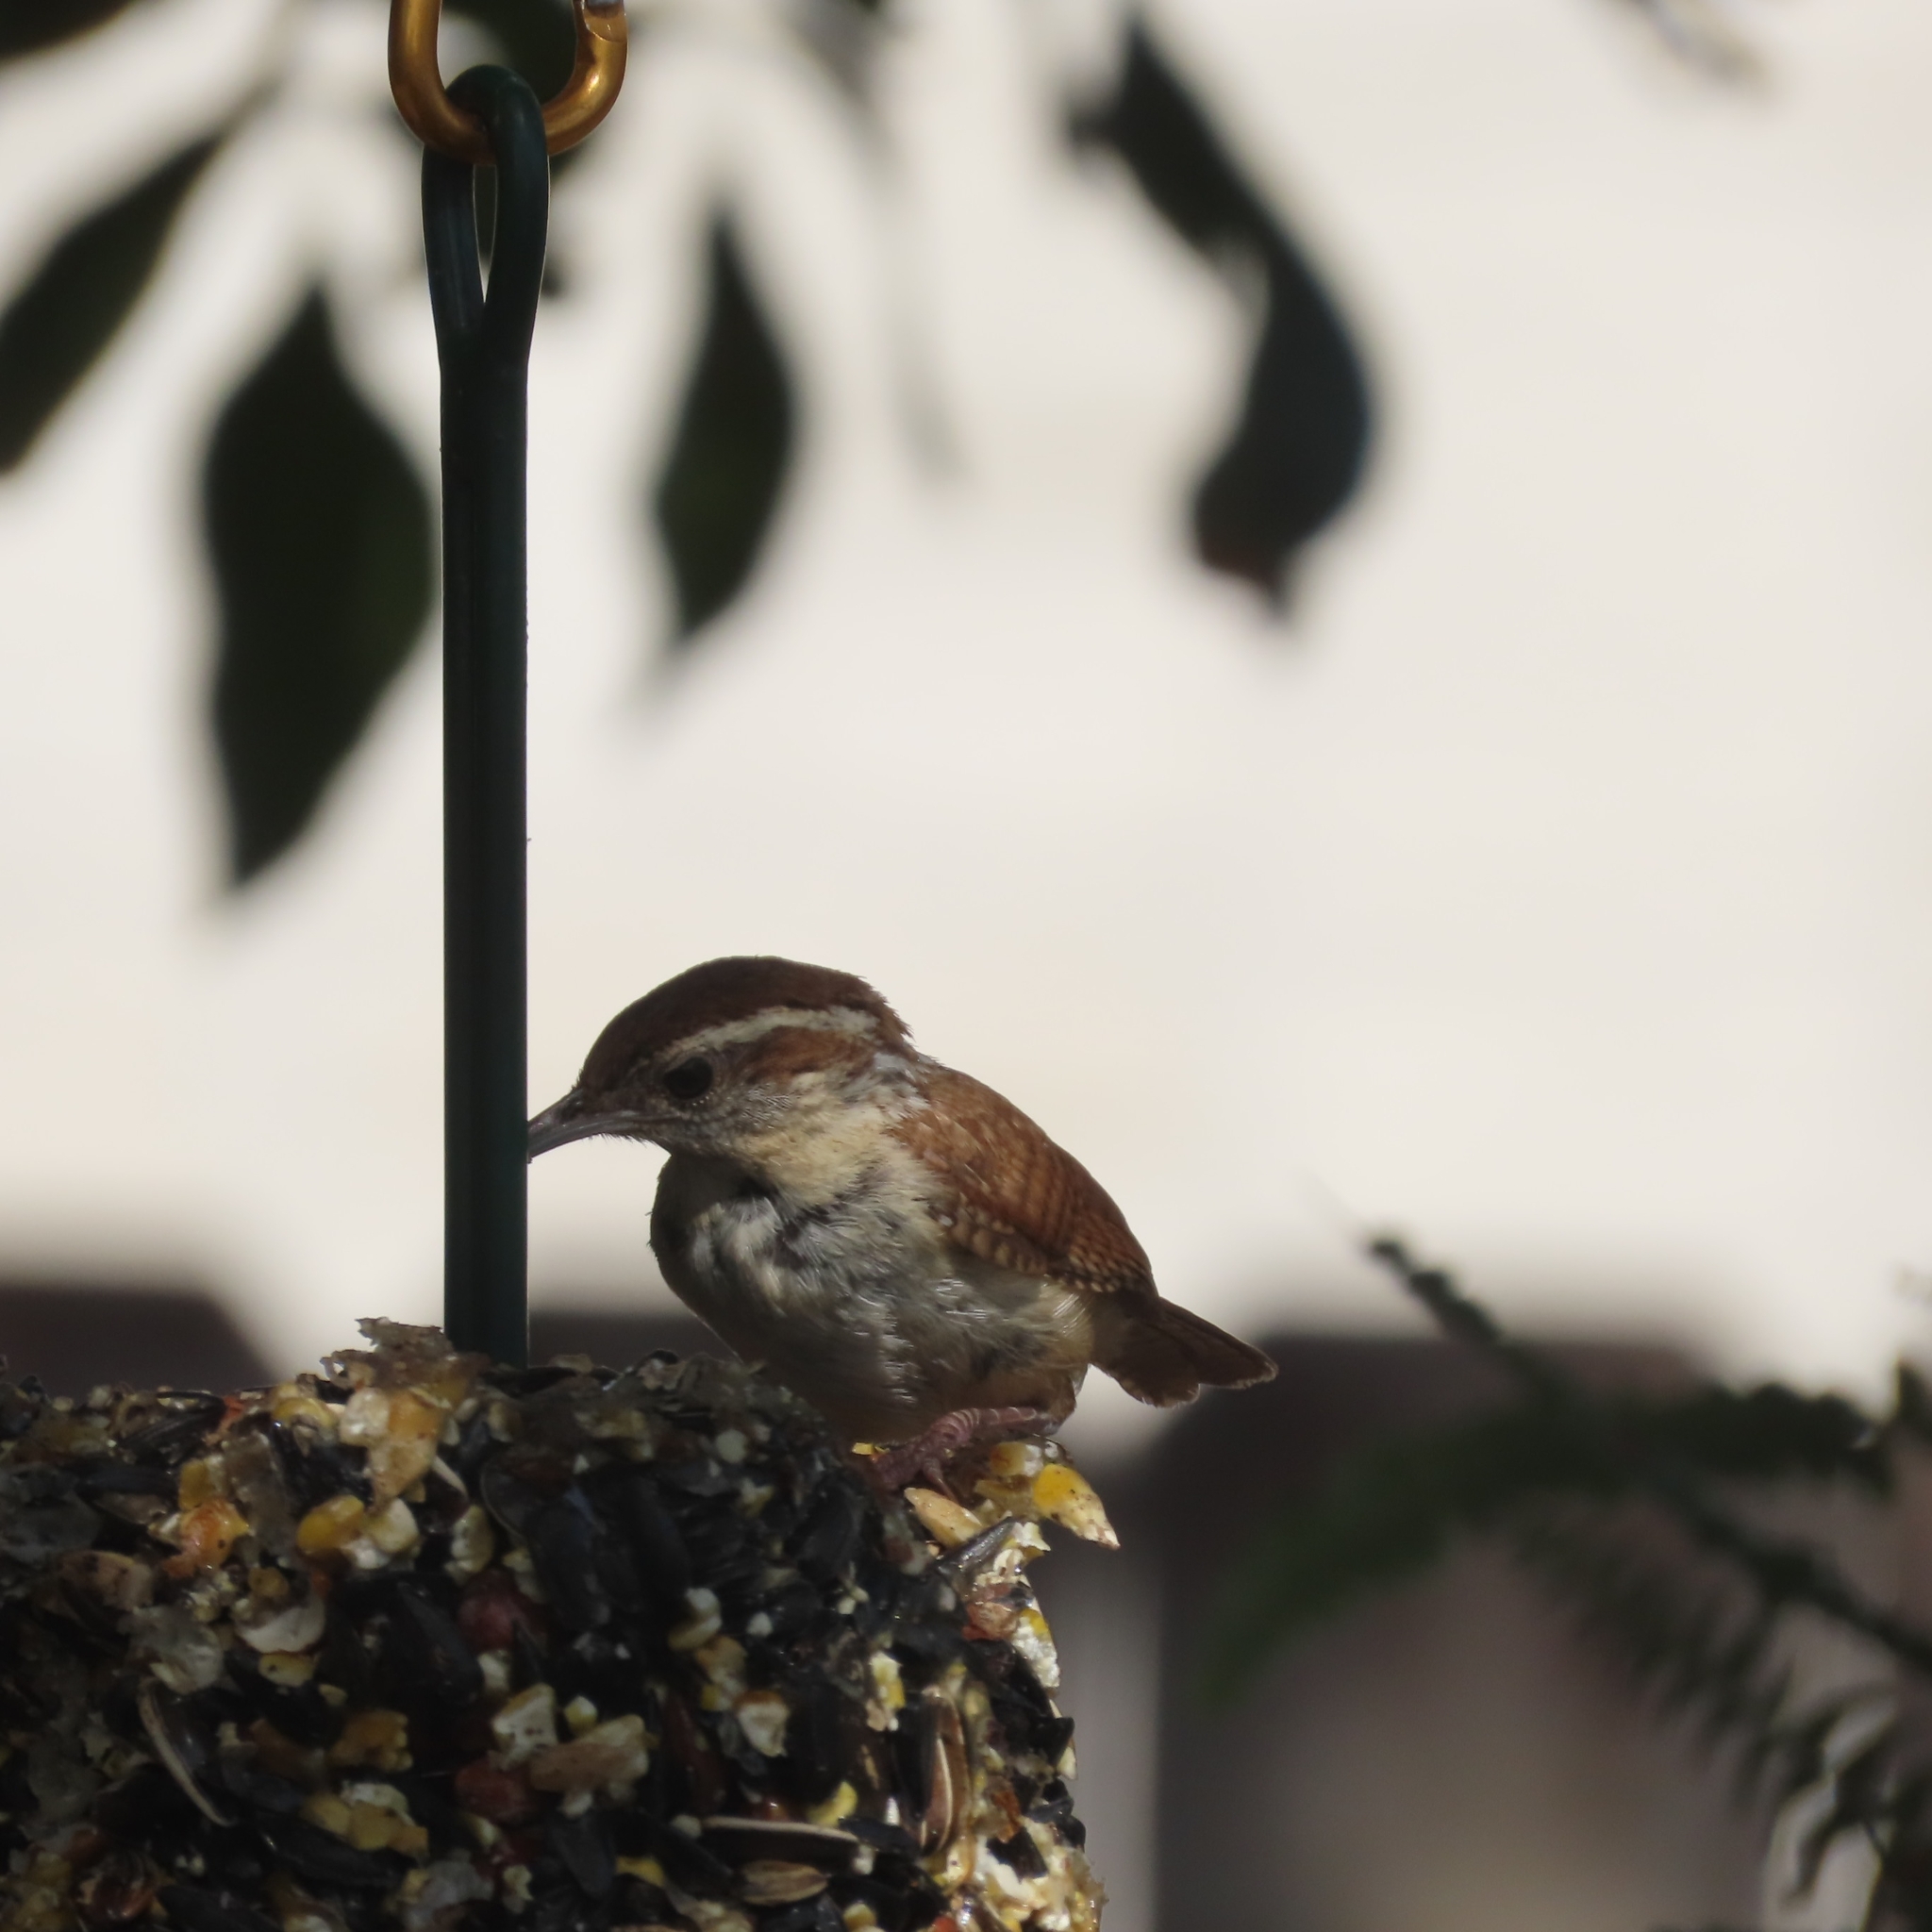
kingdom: Animalia
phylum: Chordata
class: Aves
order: Passeriformes
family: Troglodytidae
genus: Thryothorus
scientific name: Thryothorus ludovicianus
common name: Carolina wren
